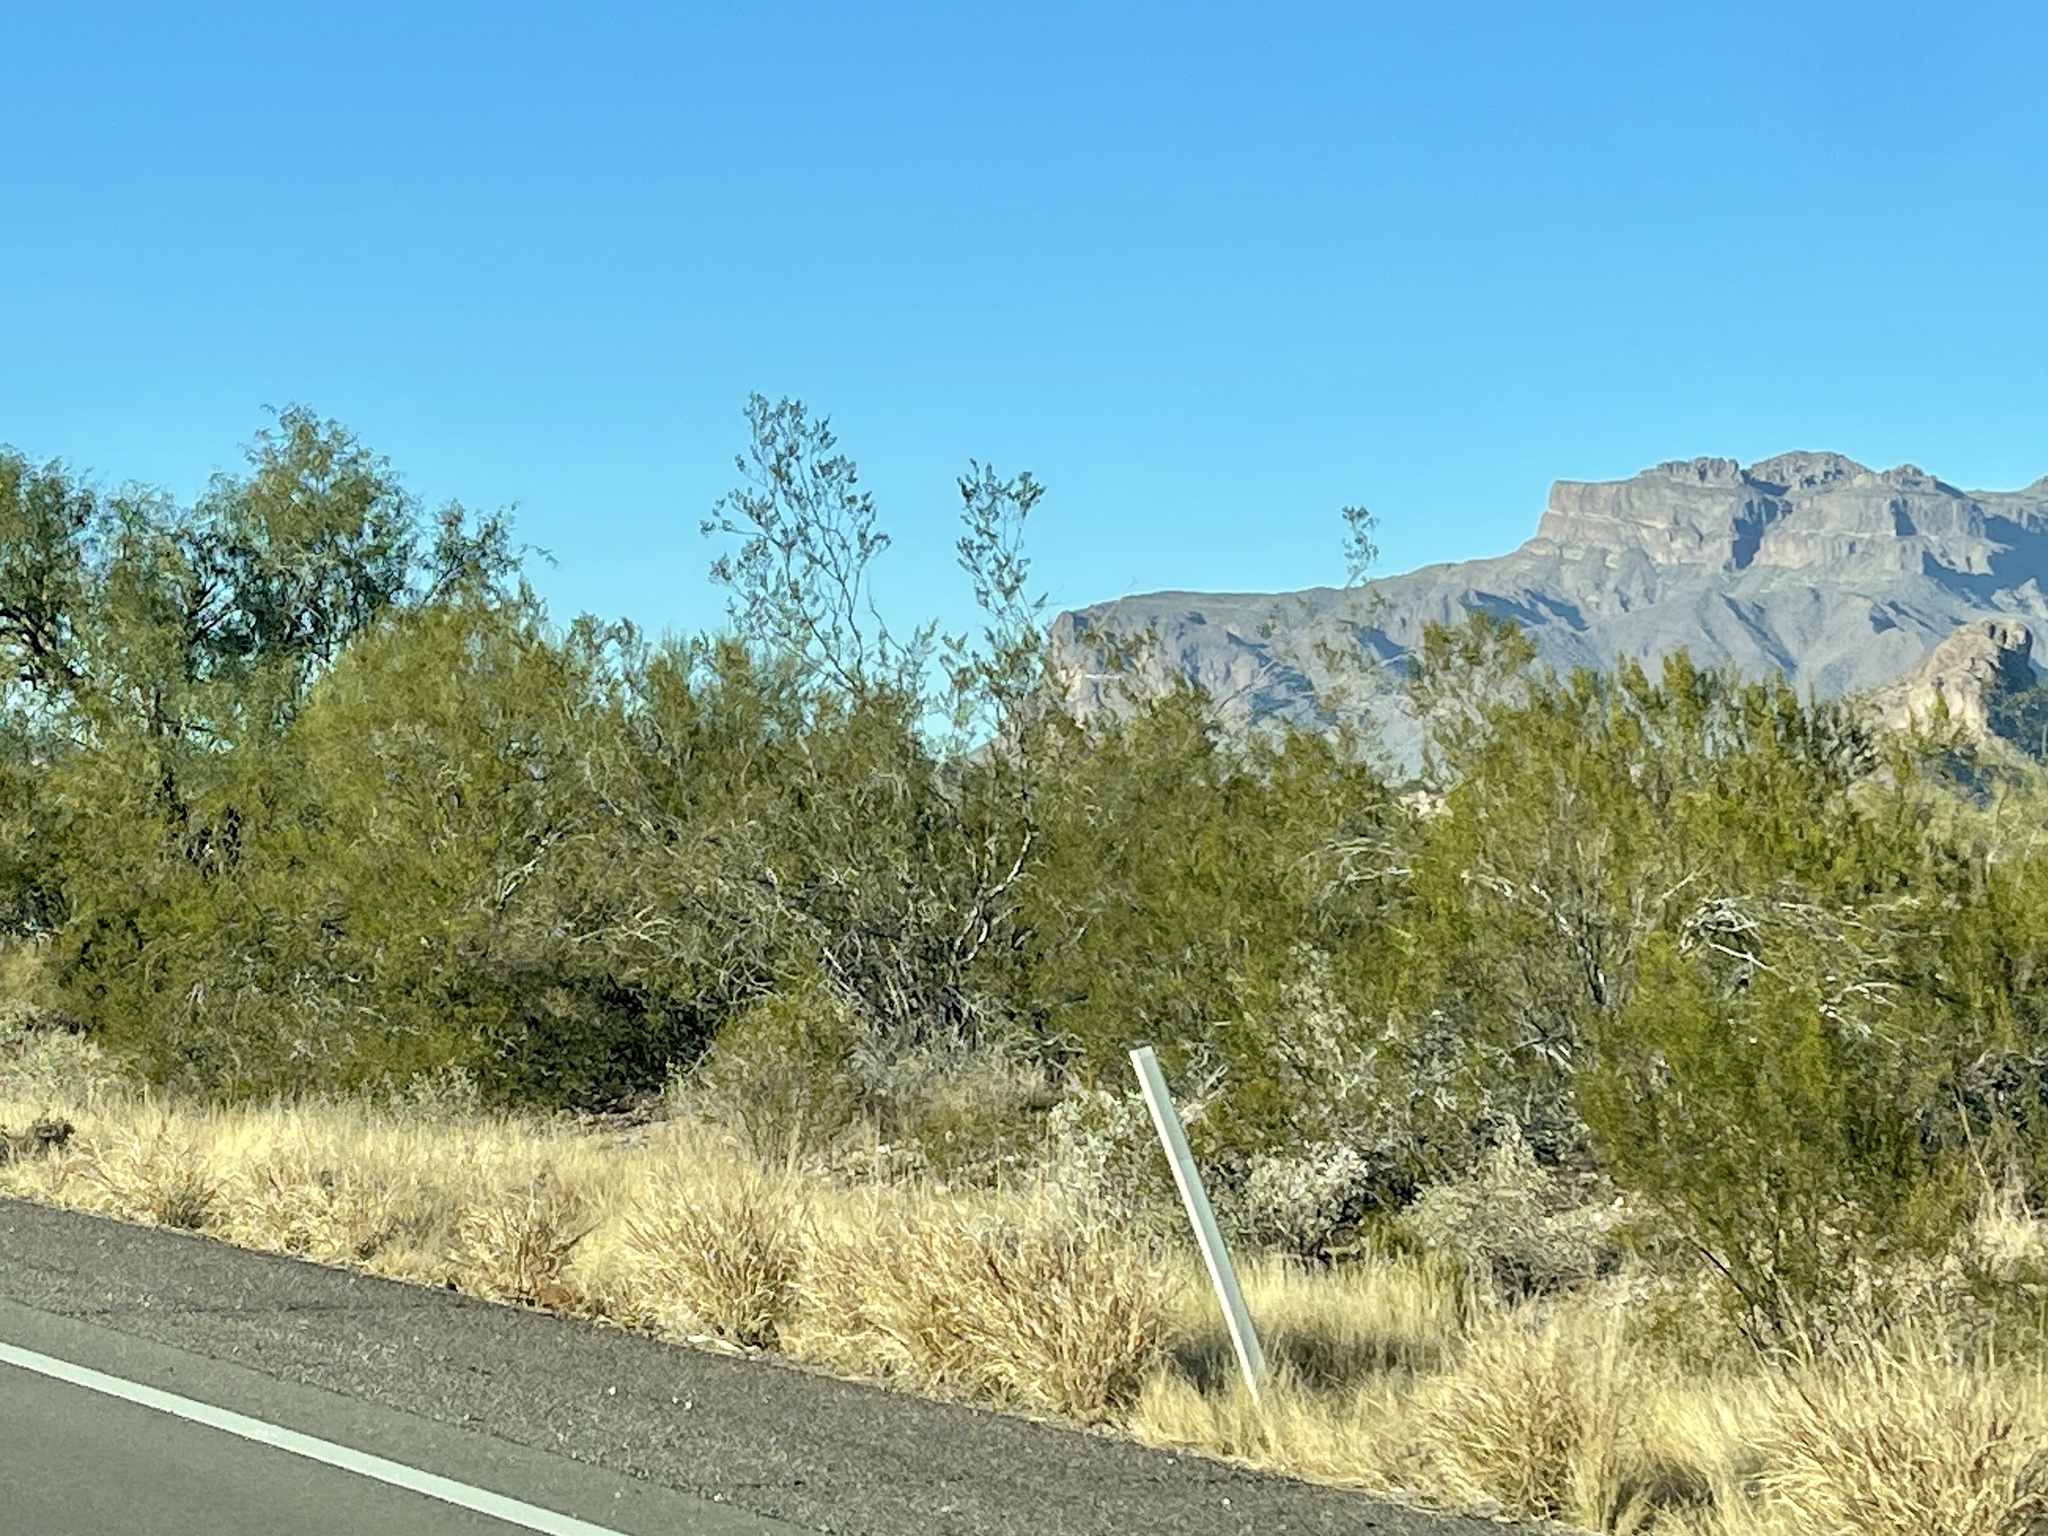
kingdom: Plantae
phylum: Tracheophyta
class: Magnoliopsida
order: Zygophyllales
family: Zygophyllaceae
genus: Larrea
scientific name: Larrea tridentata
